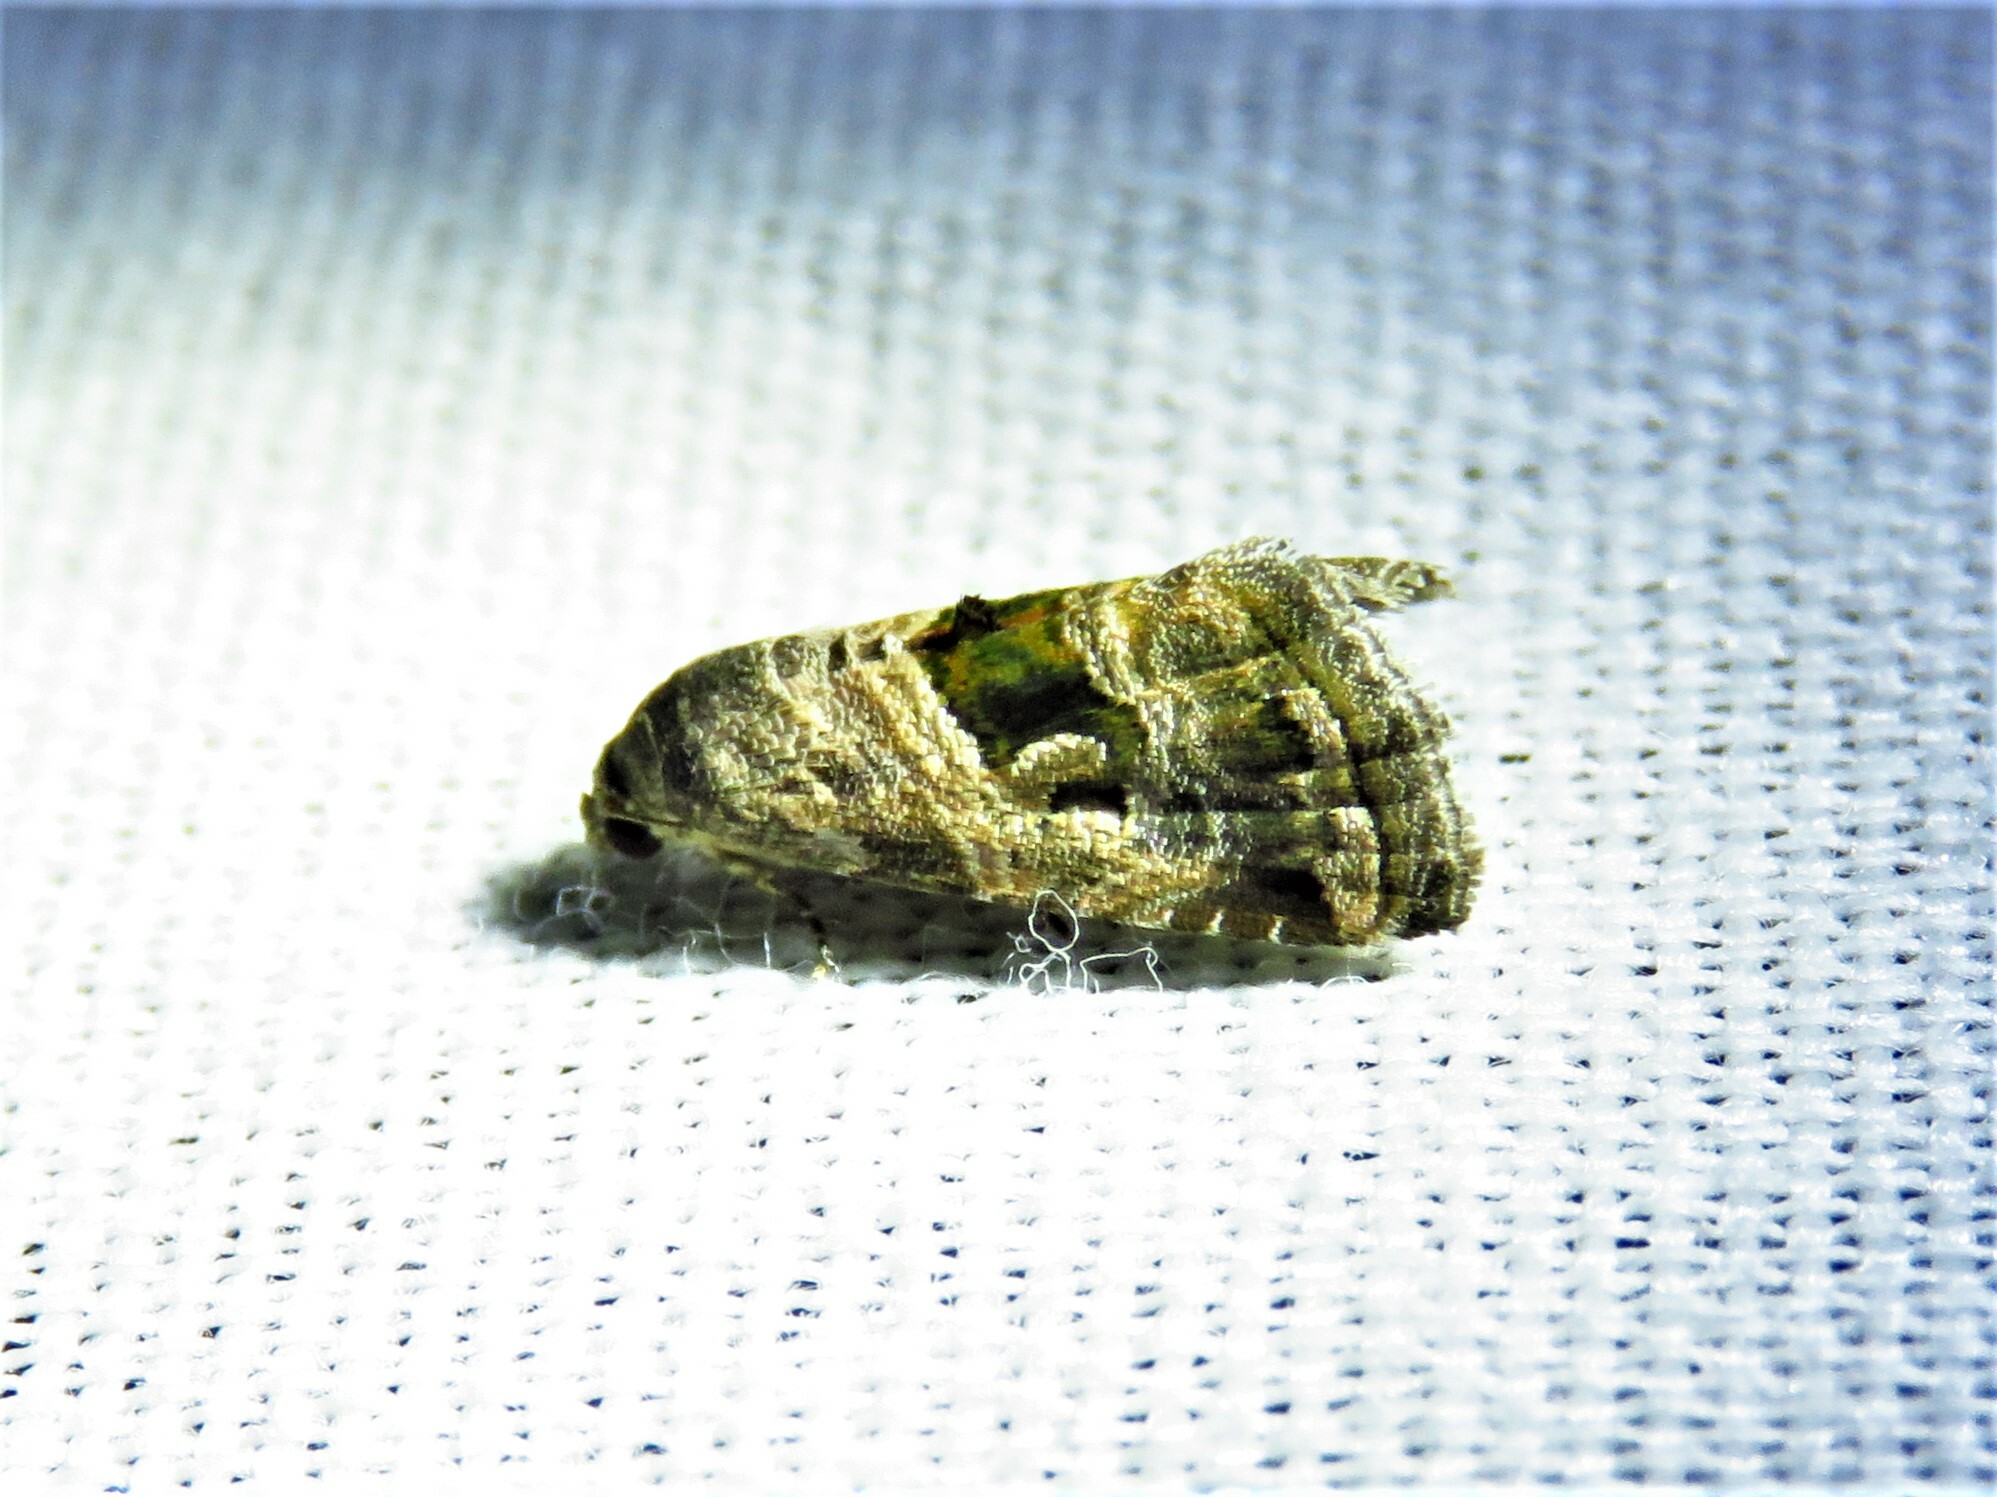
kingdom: Animalia
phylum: Arthropoda
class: Insecta
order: Lepidoptera
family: Noctuidae
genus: Tripudia
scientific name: Tripudia quadrifera
